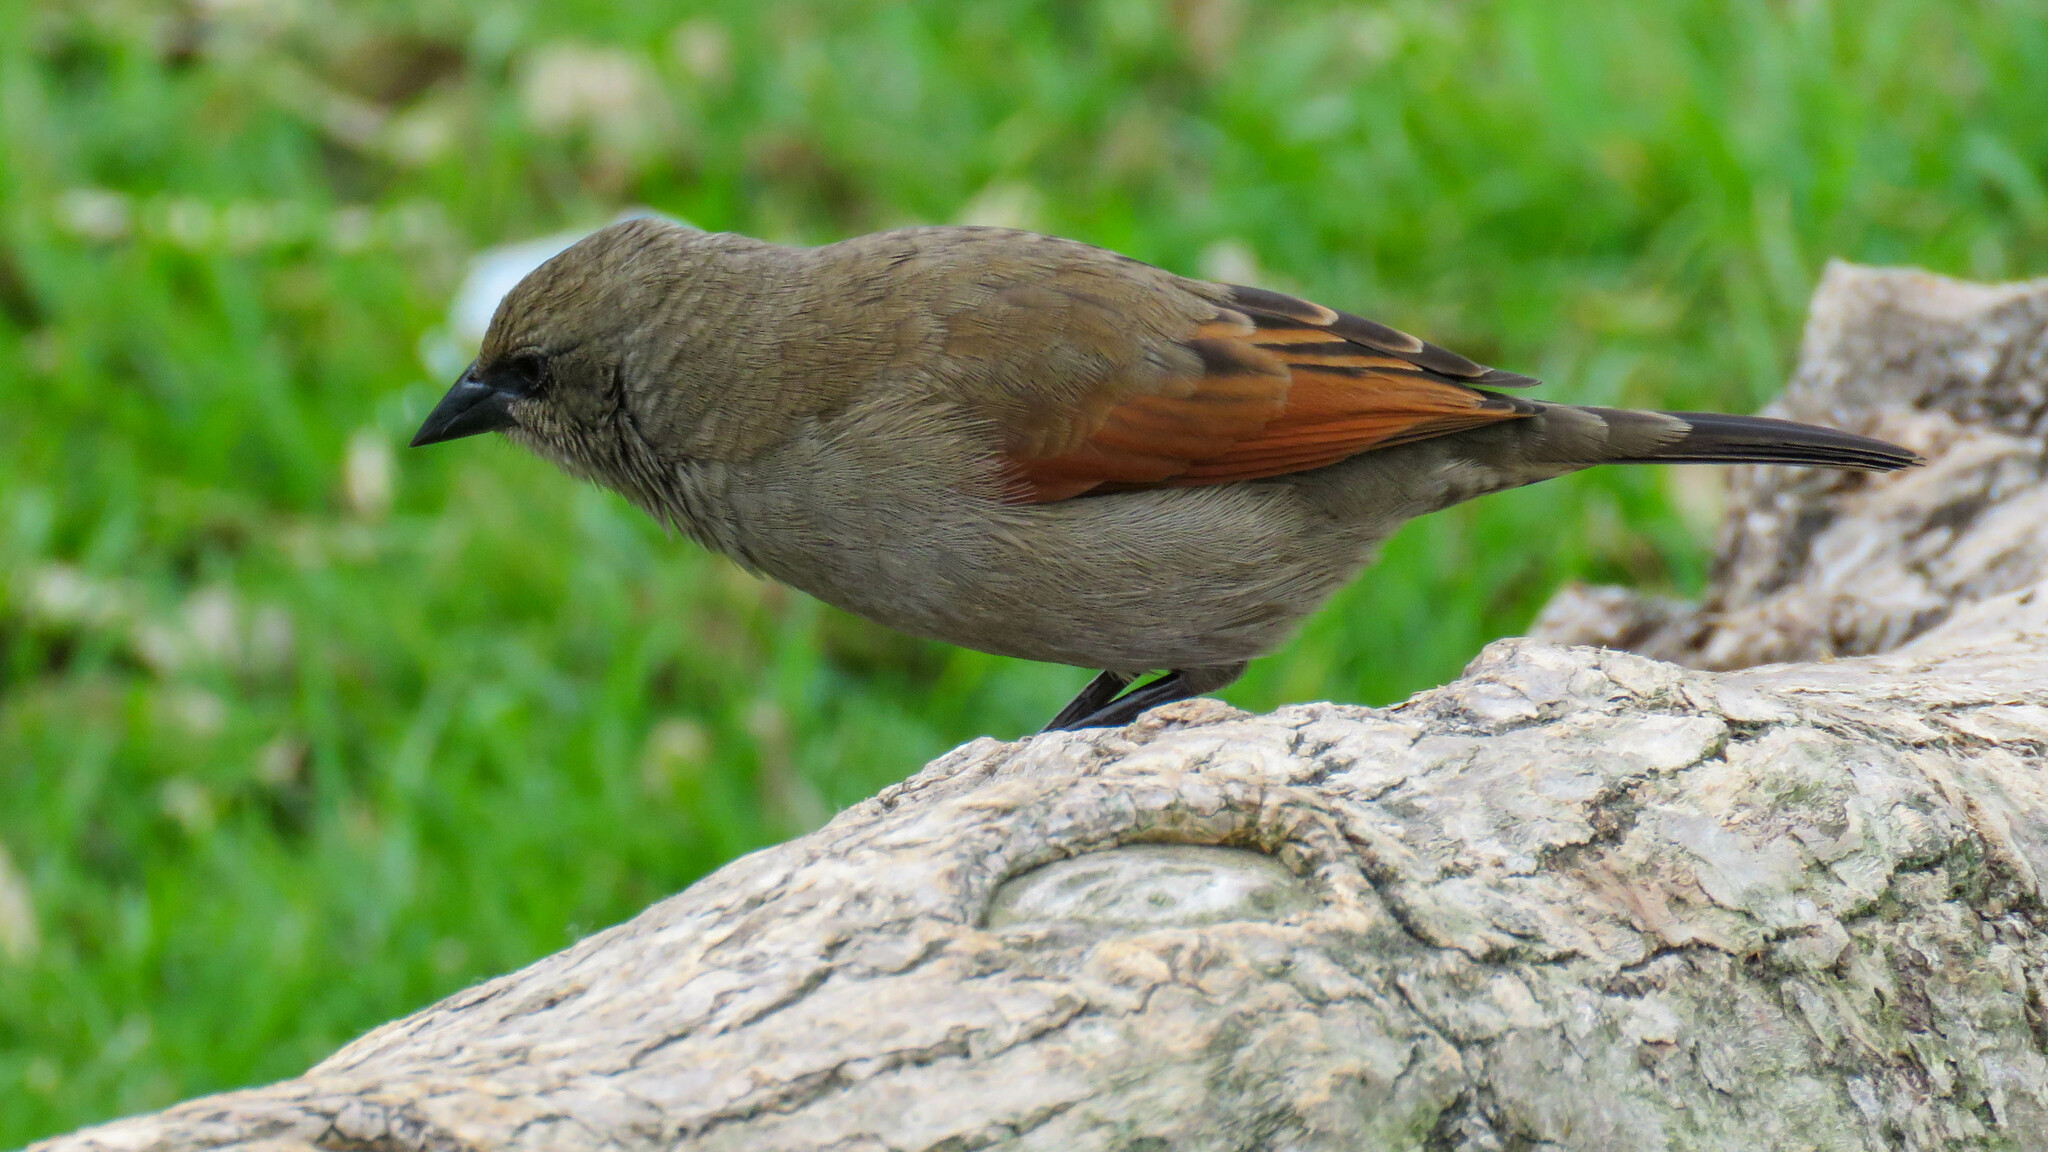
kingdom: Animalia
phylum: Chordata
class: Aves
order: Passeriformes
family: Icteridae
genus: Agelaioides
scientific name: Agelaioides badius
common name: Baywing
